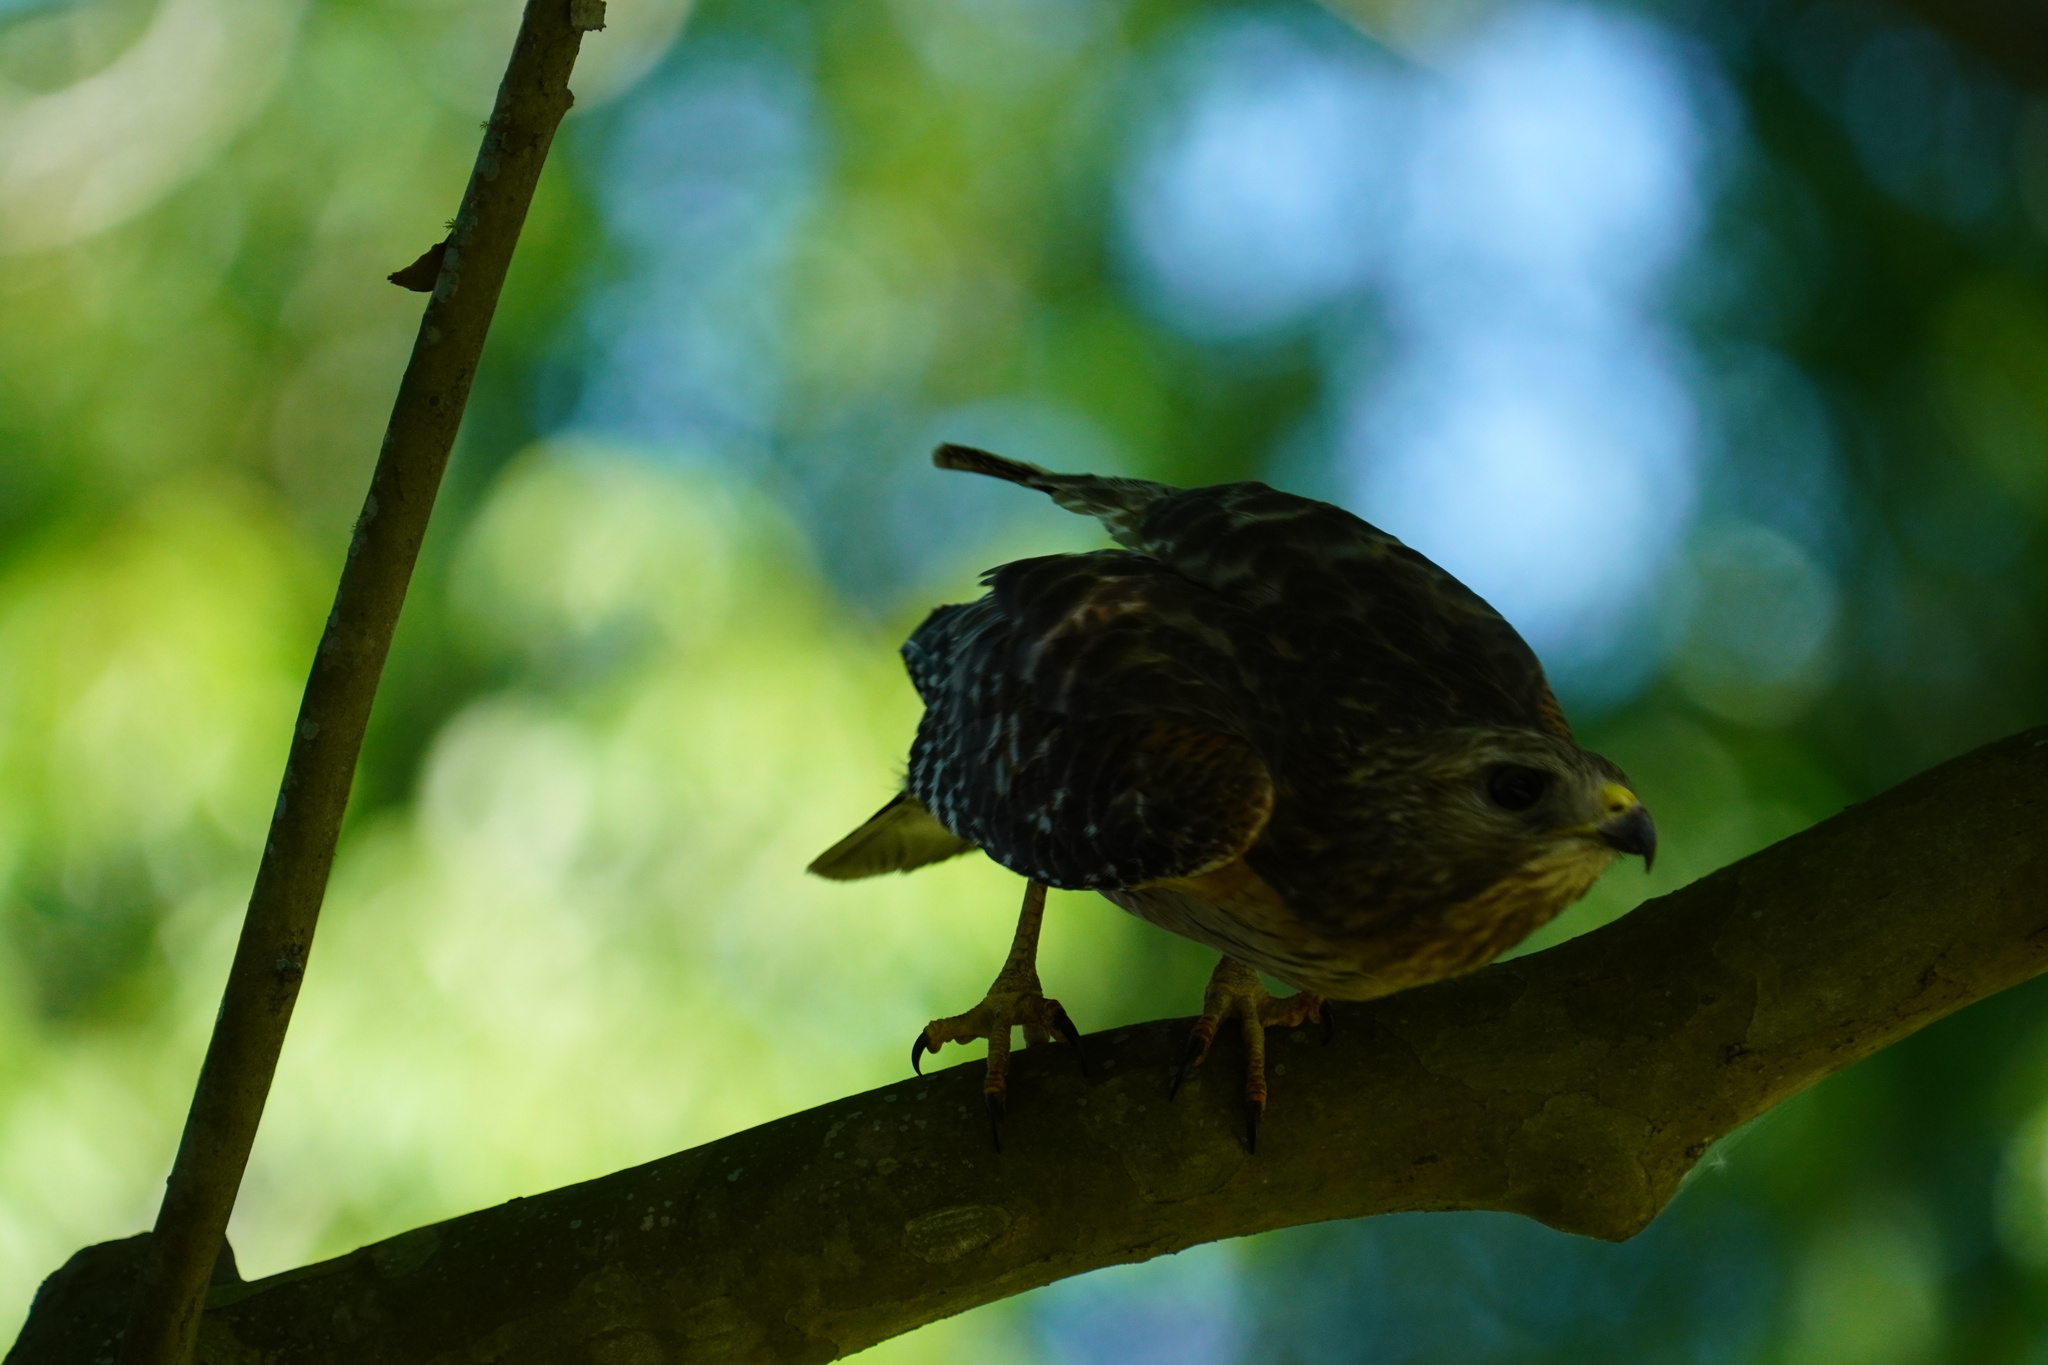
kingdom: Animalia
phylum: Chordata
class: Aves
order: Accipitriformes
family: Accipitridae
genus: Buteo
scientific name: Buteo lineatus
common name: Red-shouldered hawk
